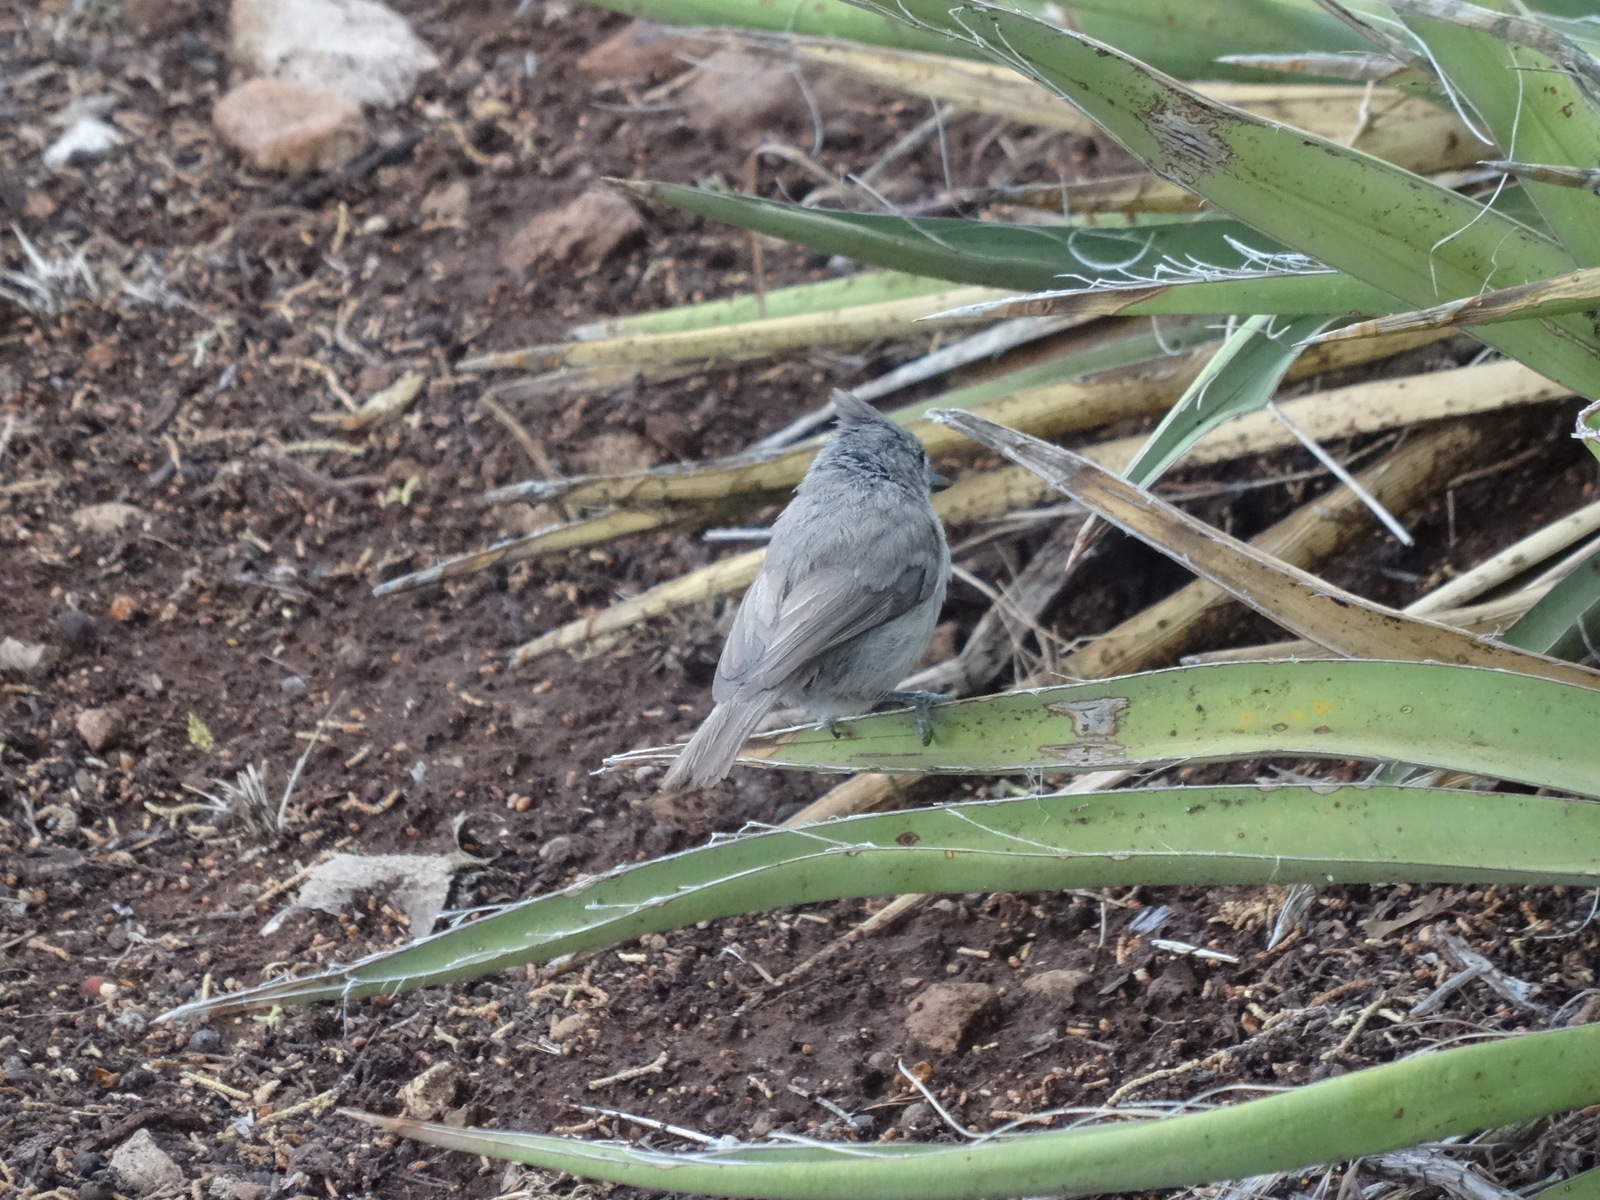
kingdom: Animalia
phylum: Chordata
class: Aves
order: Passeriformes
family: Paridae
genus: Baeolophus
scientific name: Baeolophus ridgwayi
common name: Juniper titmouse
